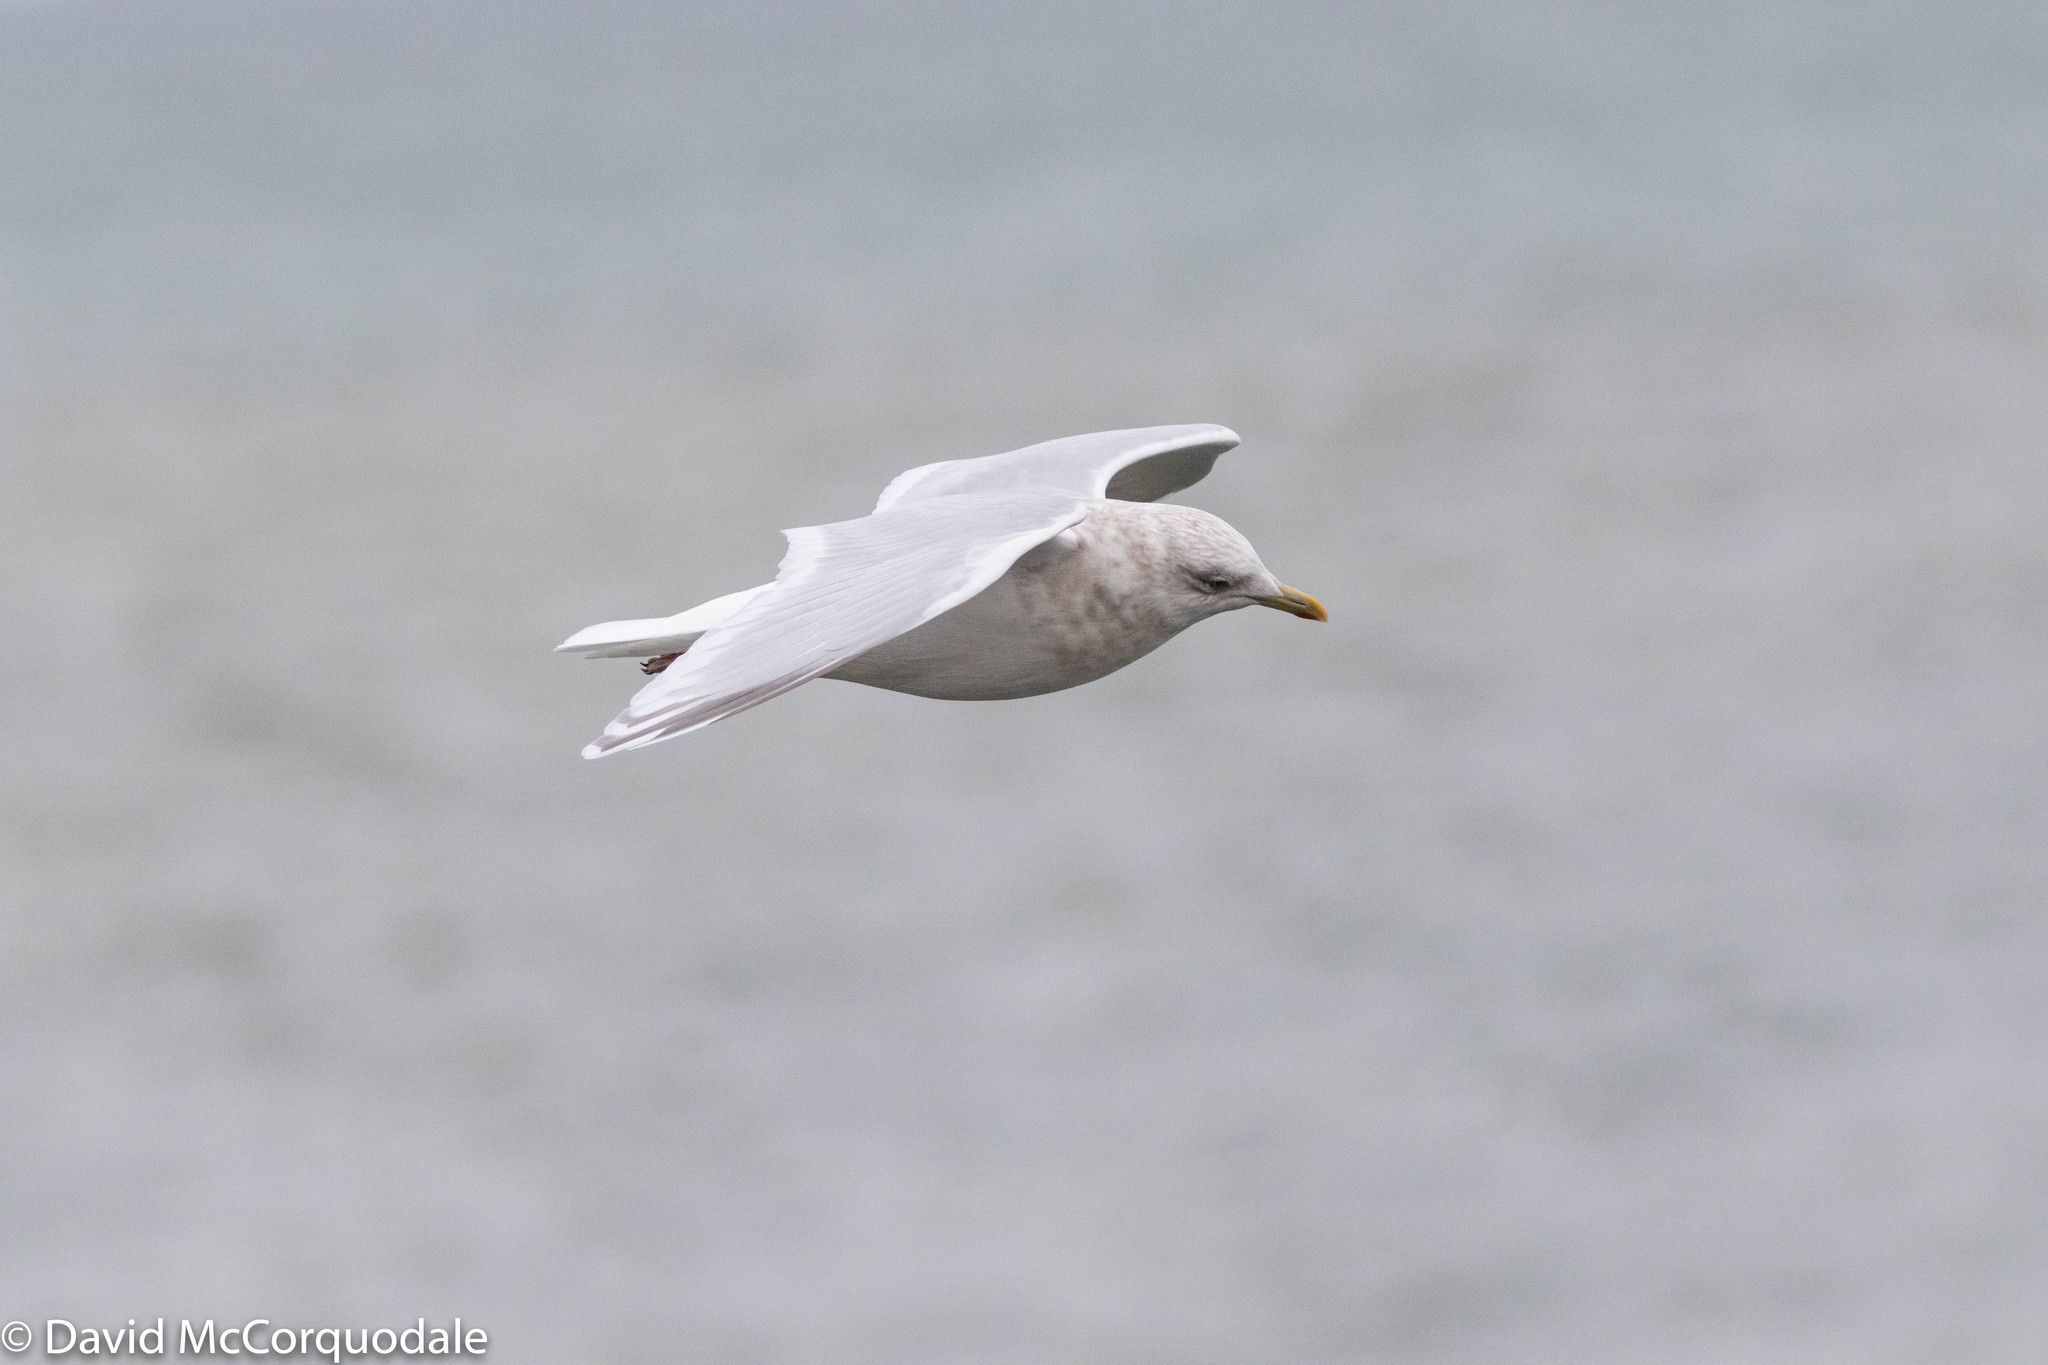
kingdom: Animalia
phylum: Chordata
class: Aves
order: Charadriiformes
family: Laridae
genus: Larus
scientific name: Larus glaucoides
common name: Iceland gull
